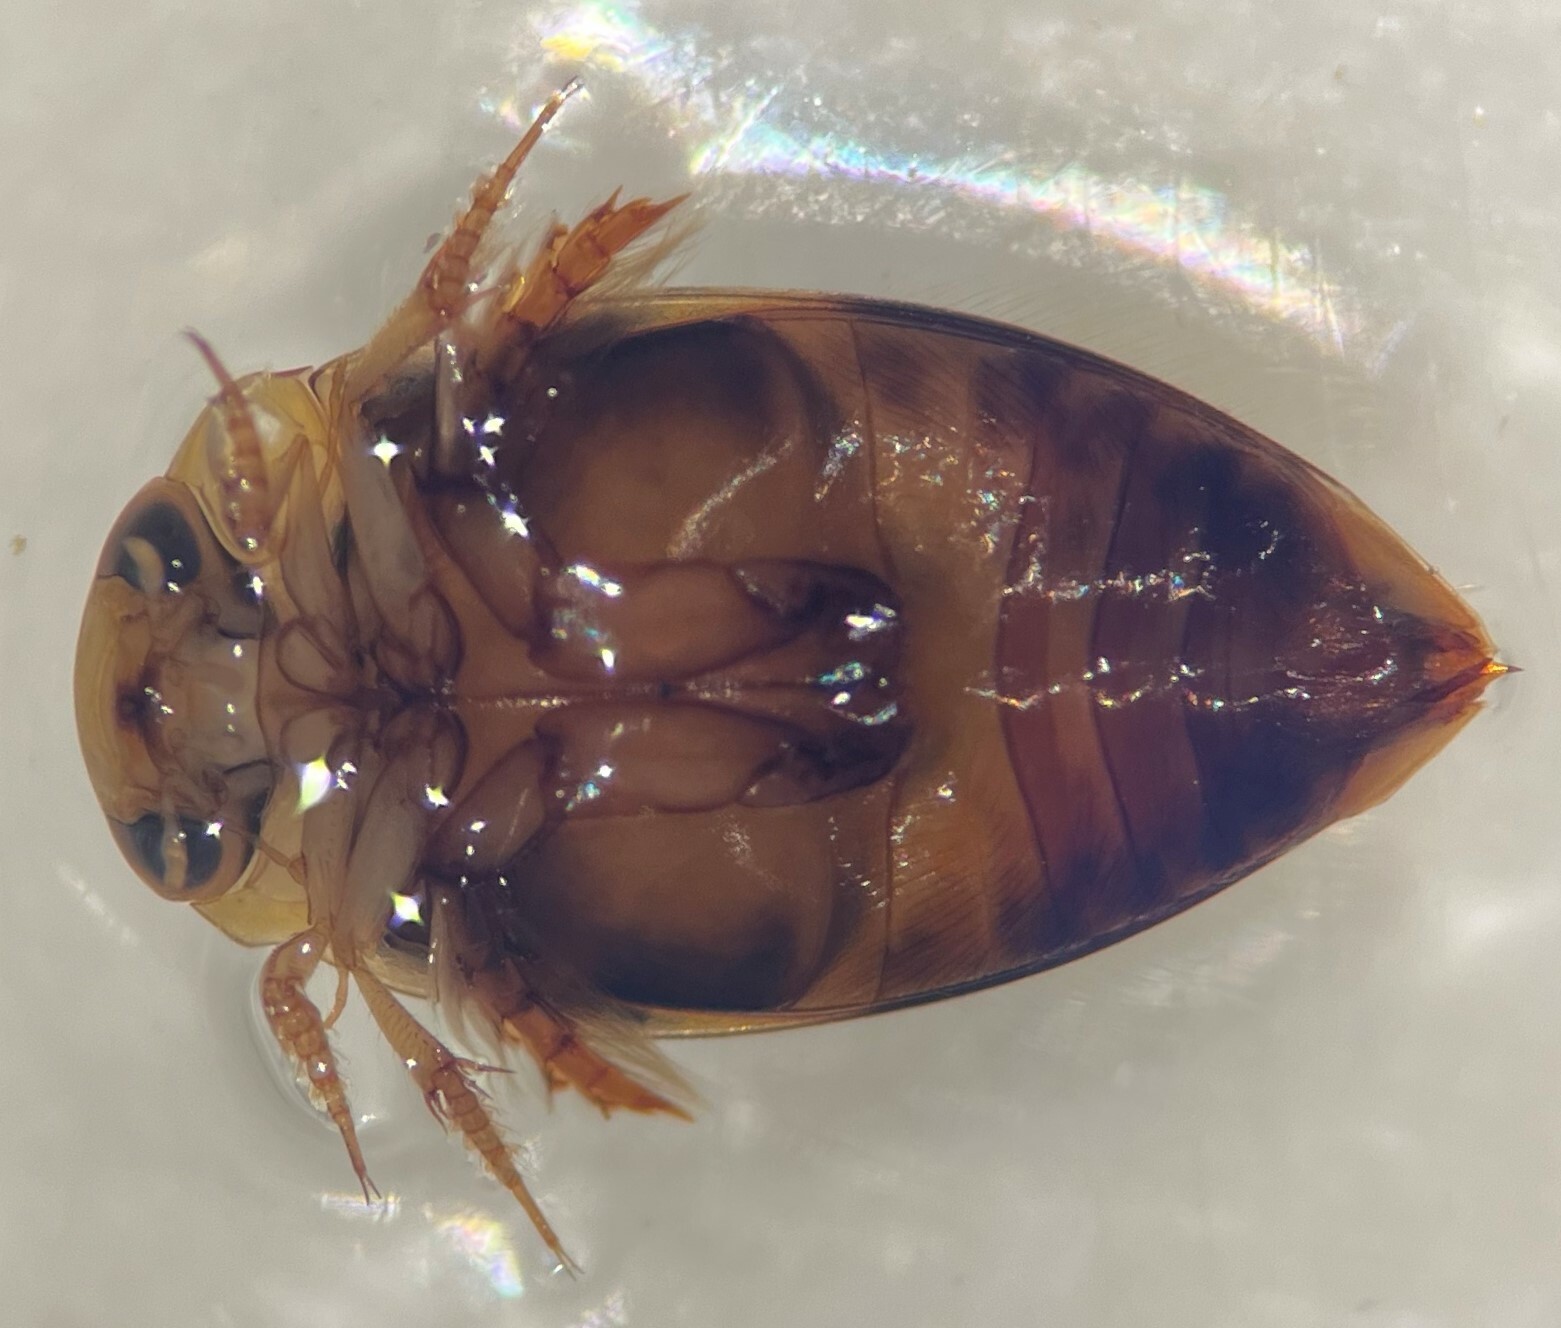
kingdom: Animalia
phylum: Arthropoda
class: Insecta
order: Coleoptera
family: Dytiscidae
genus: Laccophilus
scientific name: Laccophilus fasciatus
